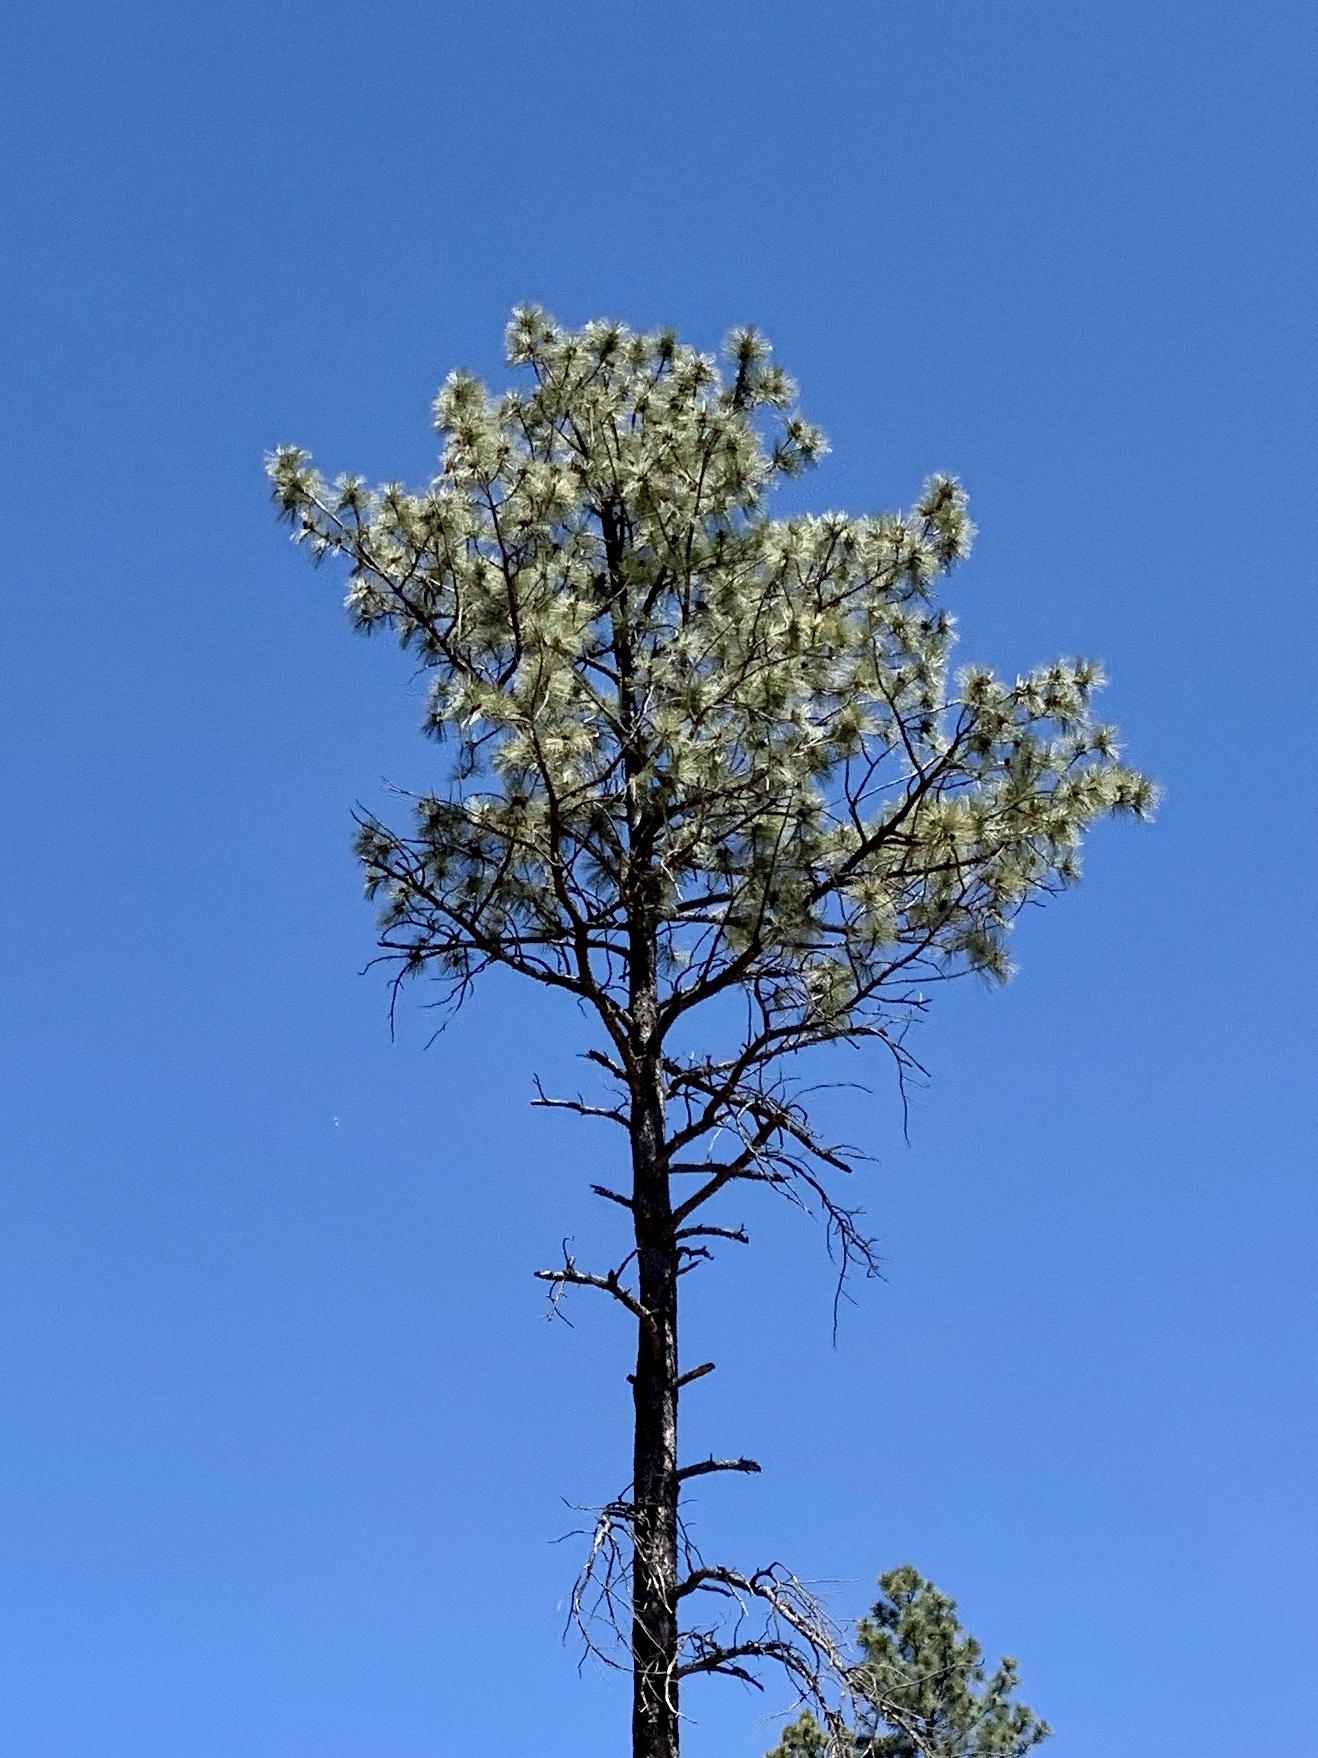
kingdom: Plantae
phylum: Tracheophyta
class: Pinopsida
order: Pinales
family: Pinaceae
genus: Pinus
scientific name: Pinus ponderosa
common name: Western yellow-pine
